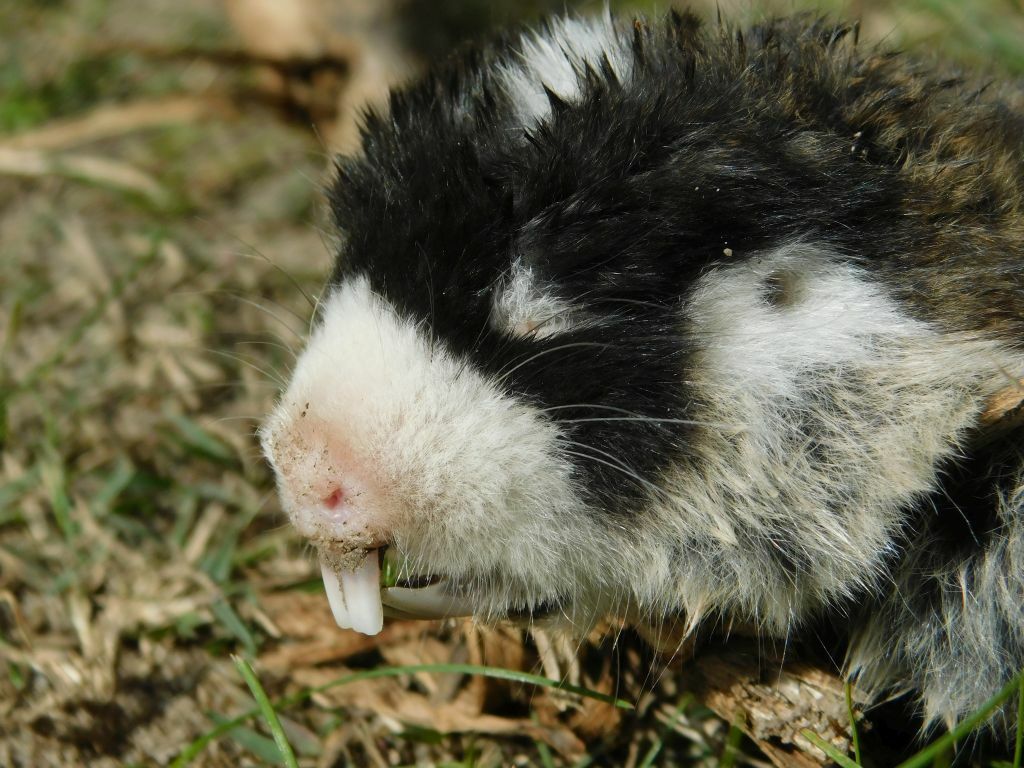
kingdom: Animalia
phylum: Chordata
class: Mammalia
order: Rodentia
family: Bathyergidae
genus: Georychus
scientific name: Georychus capensis
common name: Cape mole-rat
